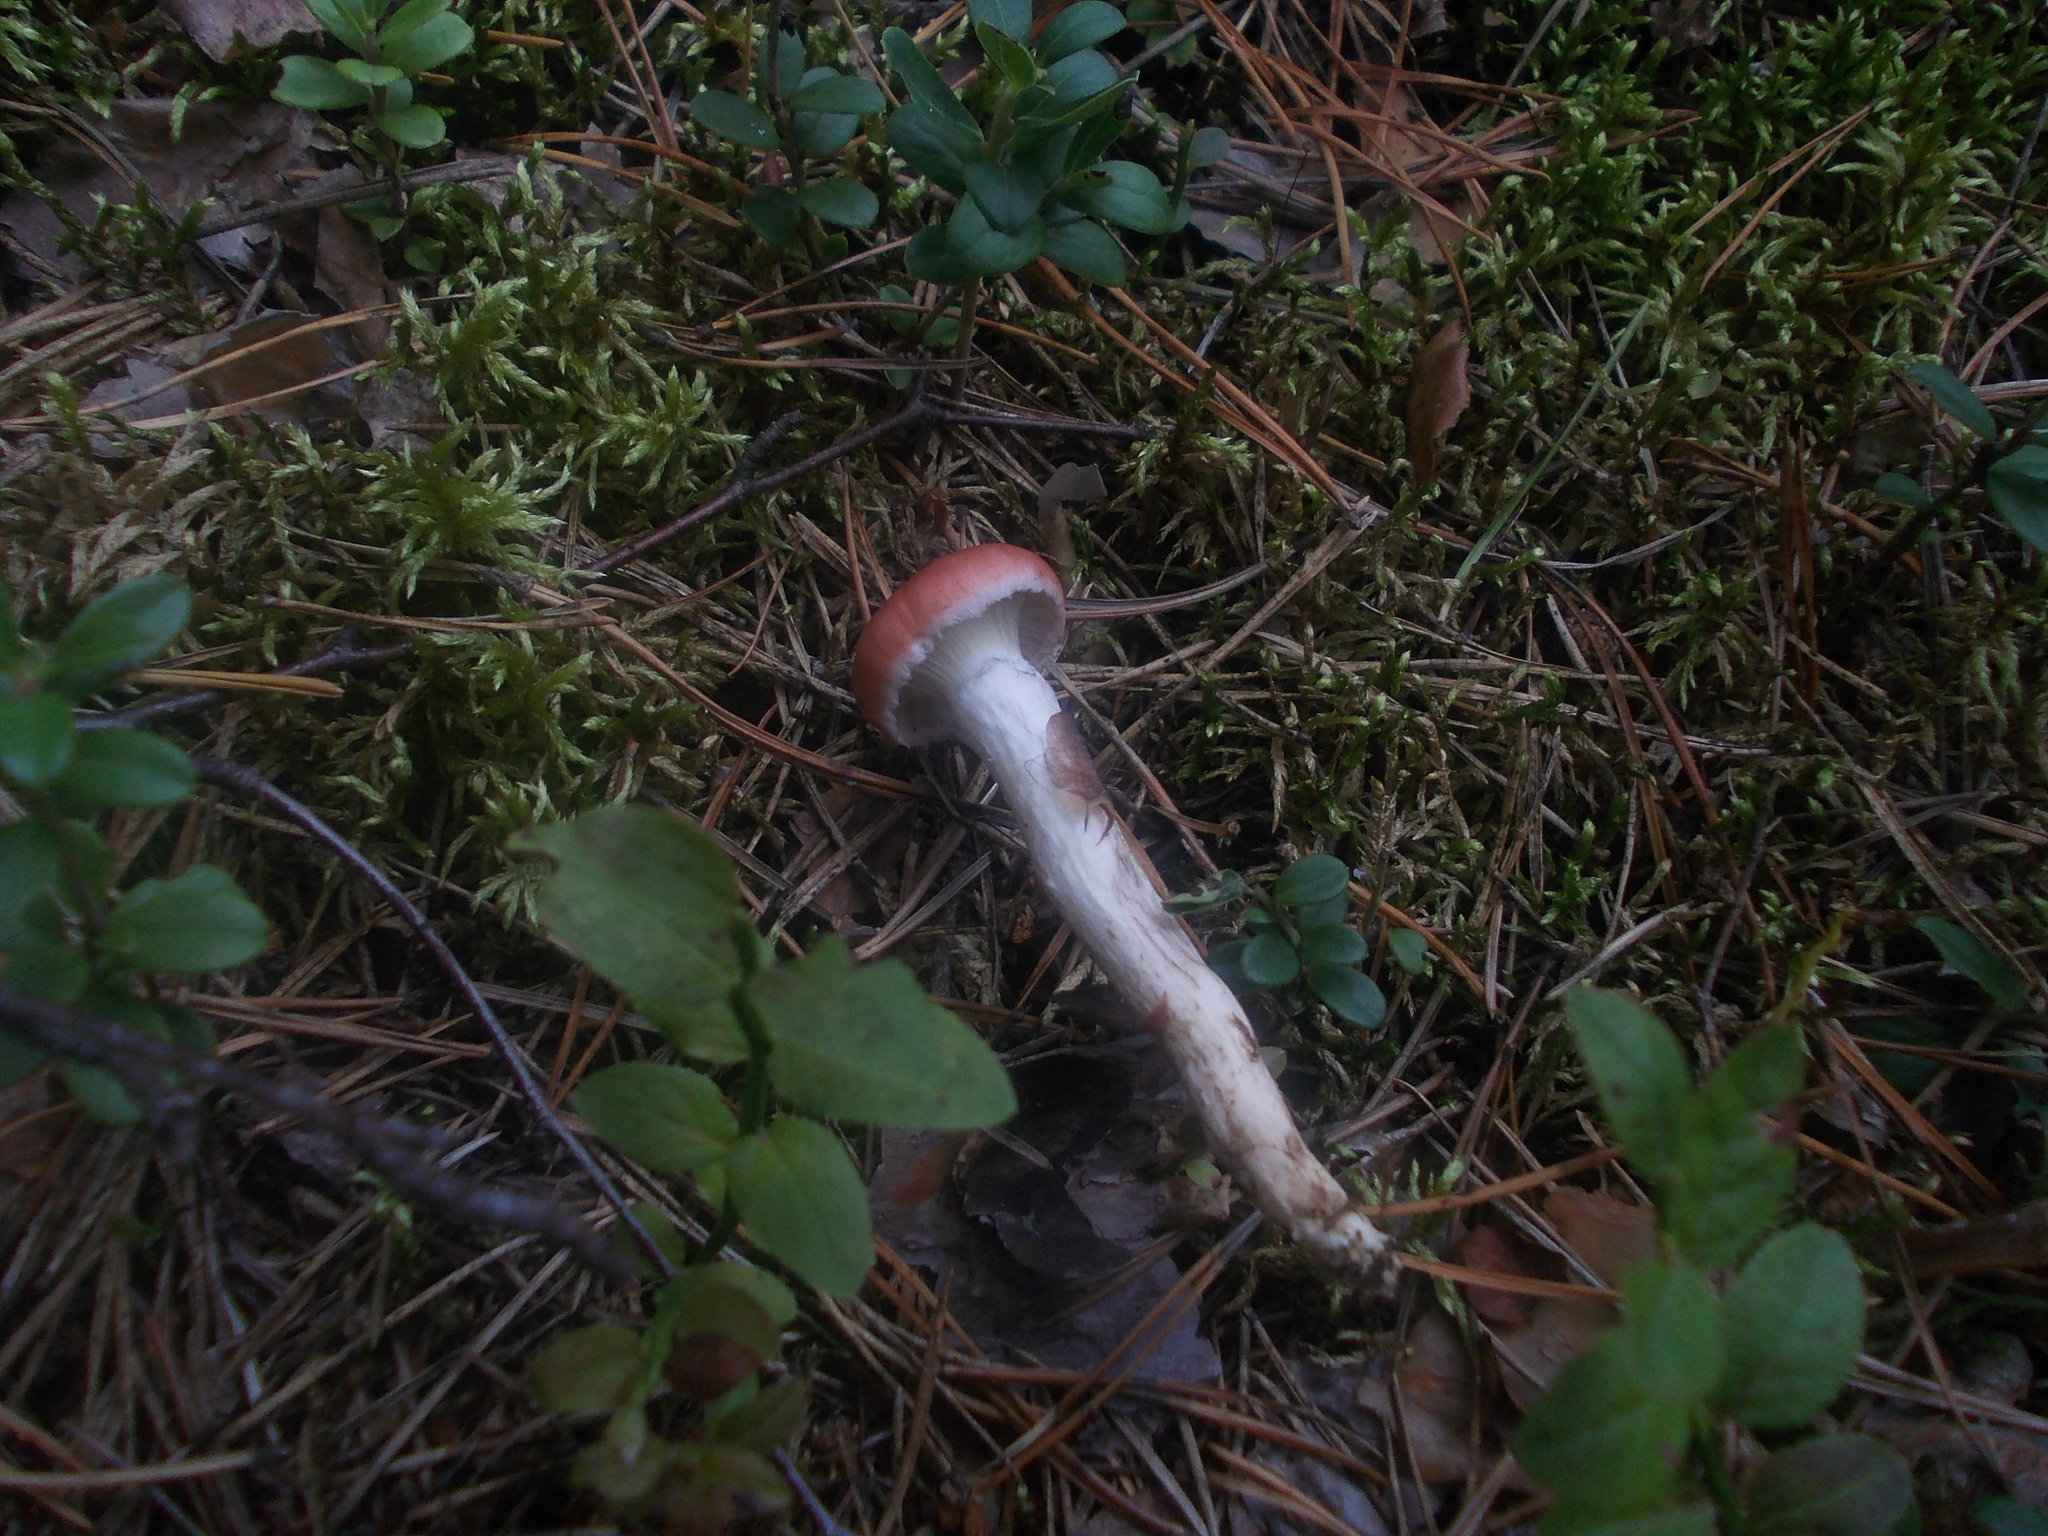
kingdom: Fungi
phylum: Basidiomycota
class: Agaricomycetes
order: Boletales
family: Gomphidiaceae
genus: Gomphidius
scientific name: Gomphidius roseus
